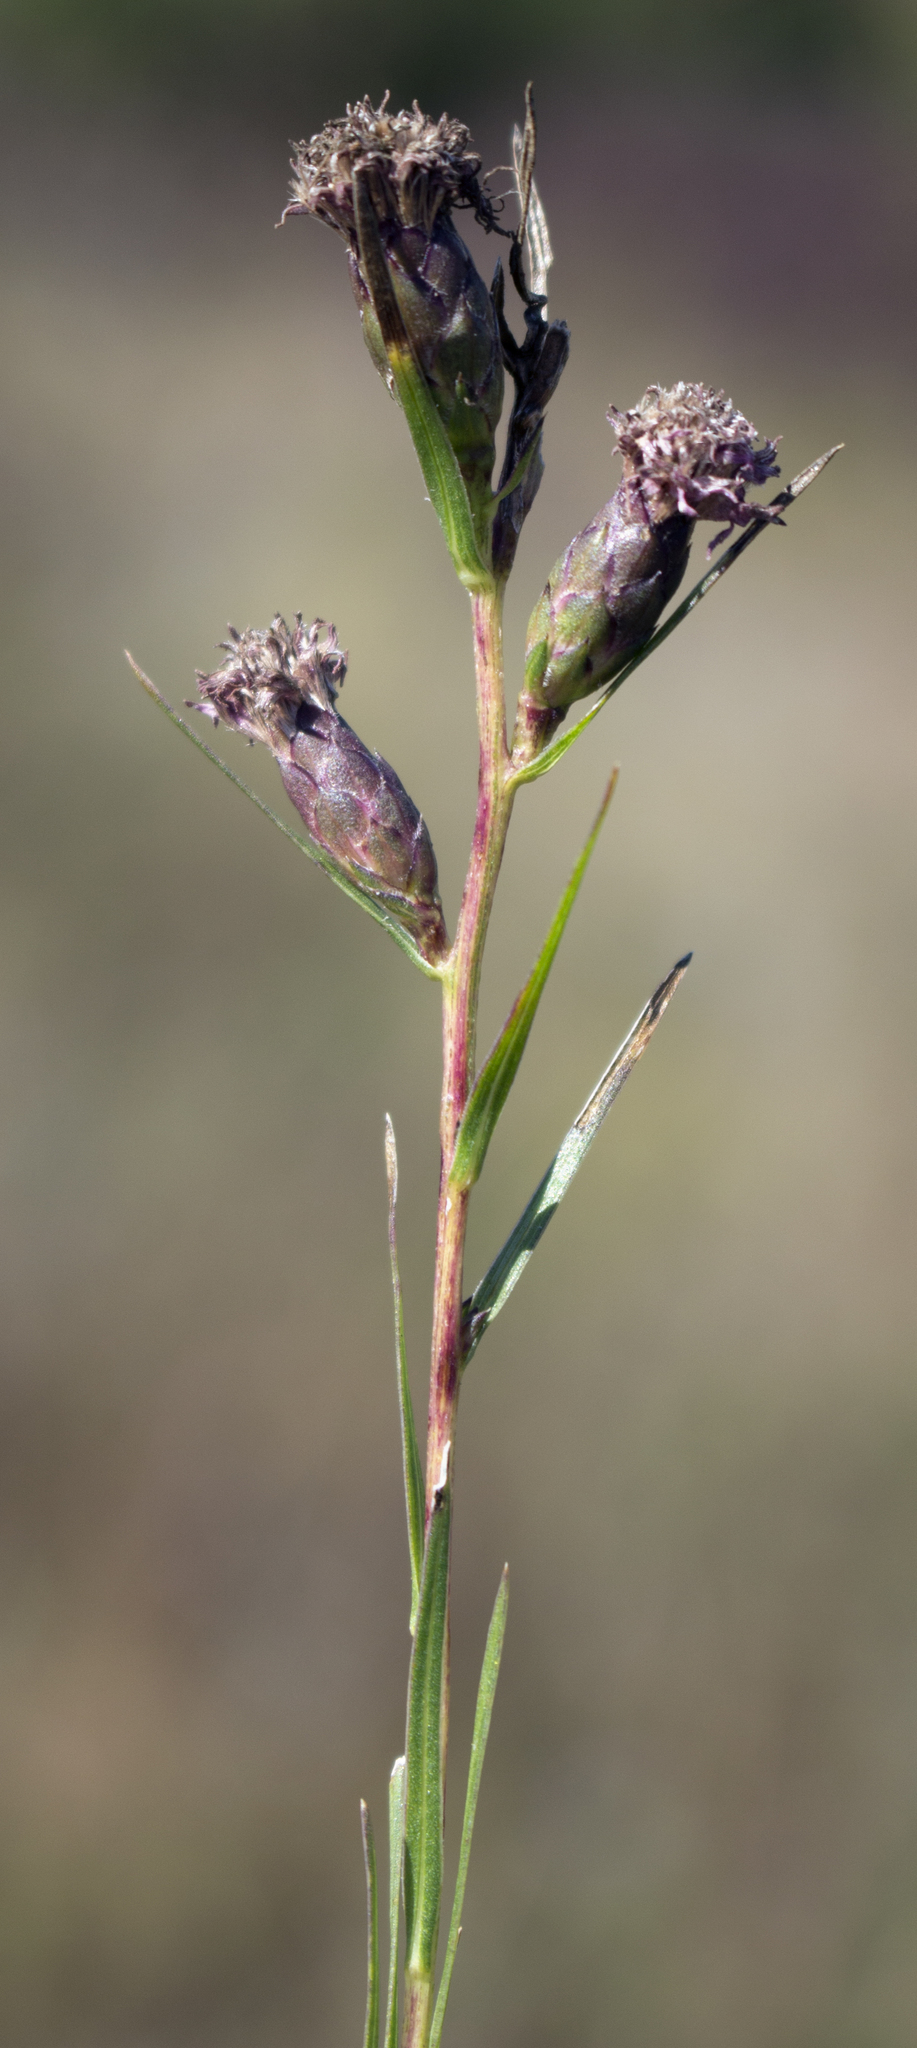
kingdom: Plantae
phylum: Tracheophyta
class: Magnoliopsida
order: Asterales
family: Asteraceae
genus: Liatris
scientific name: Liatris cylindracea
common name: Few-head blazingstar
